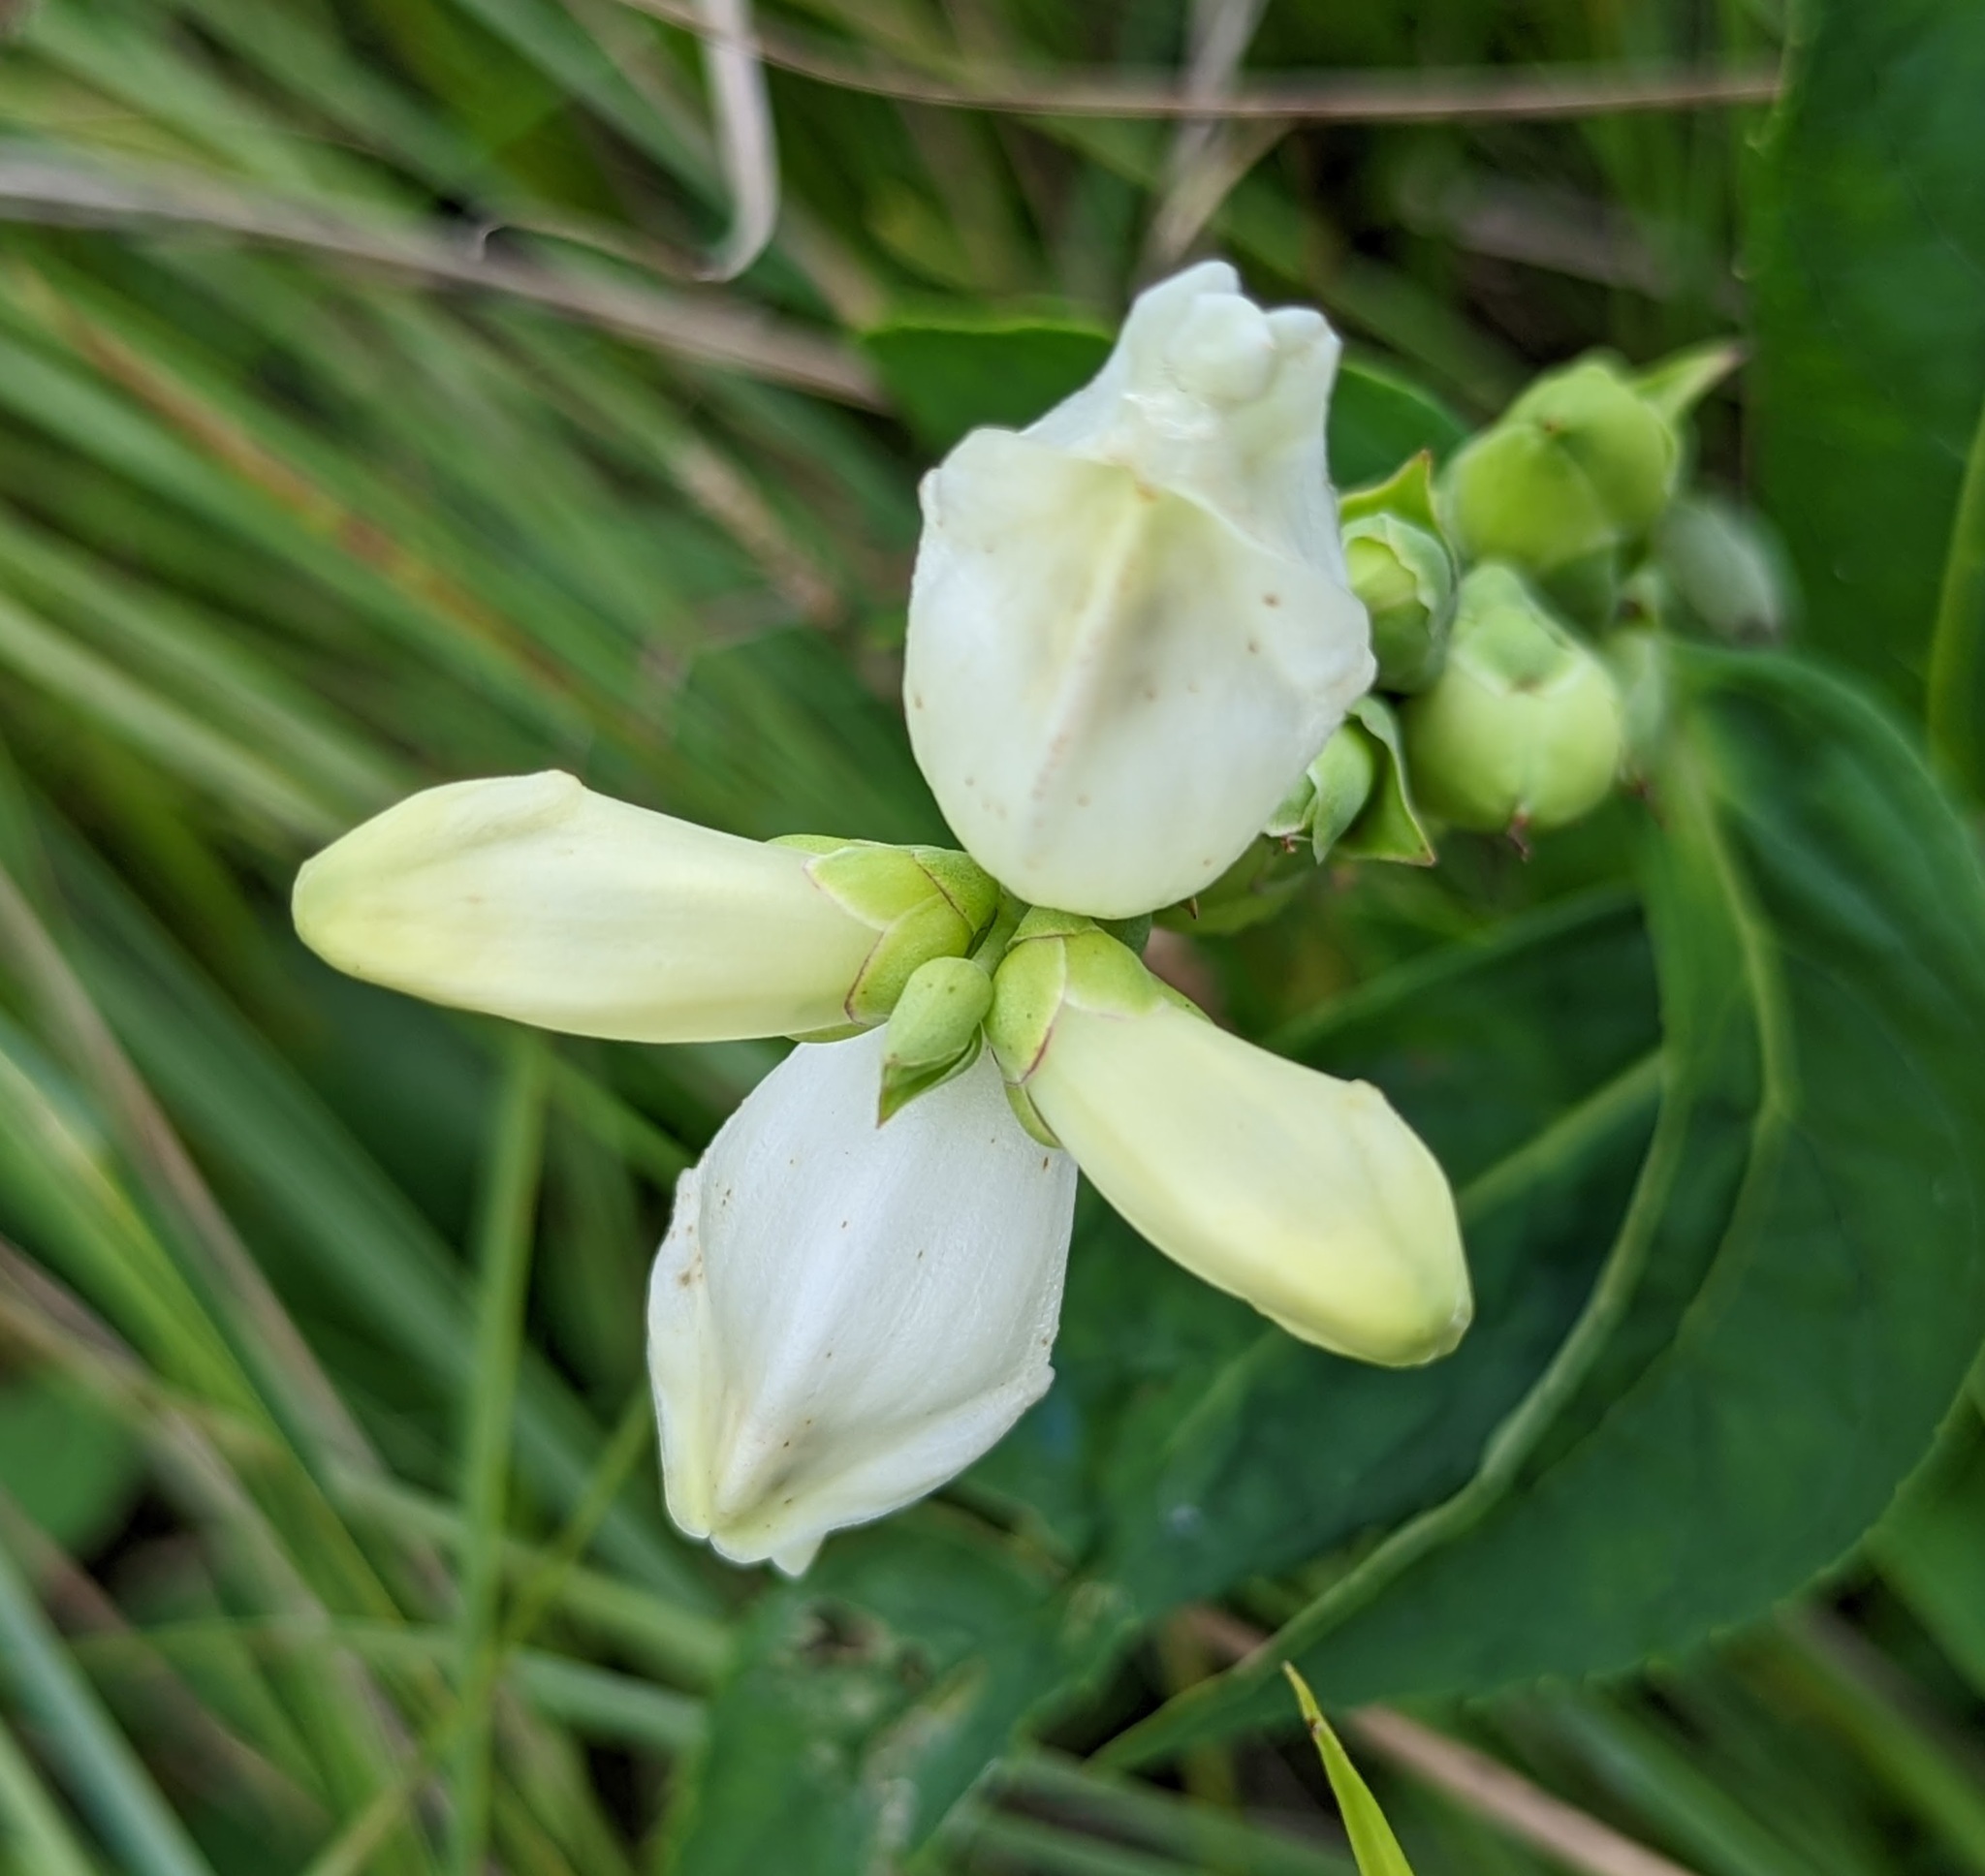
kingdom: Plantae
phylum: Tracheophyta
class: Magnoliopsida
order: Lamiales
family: Plantaginaceae
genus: Chelone
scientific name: Chelone glabra
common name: Snakehead
